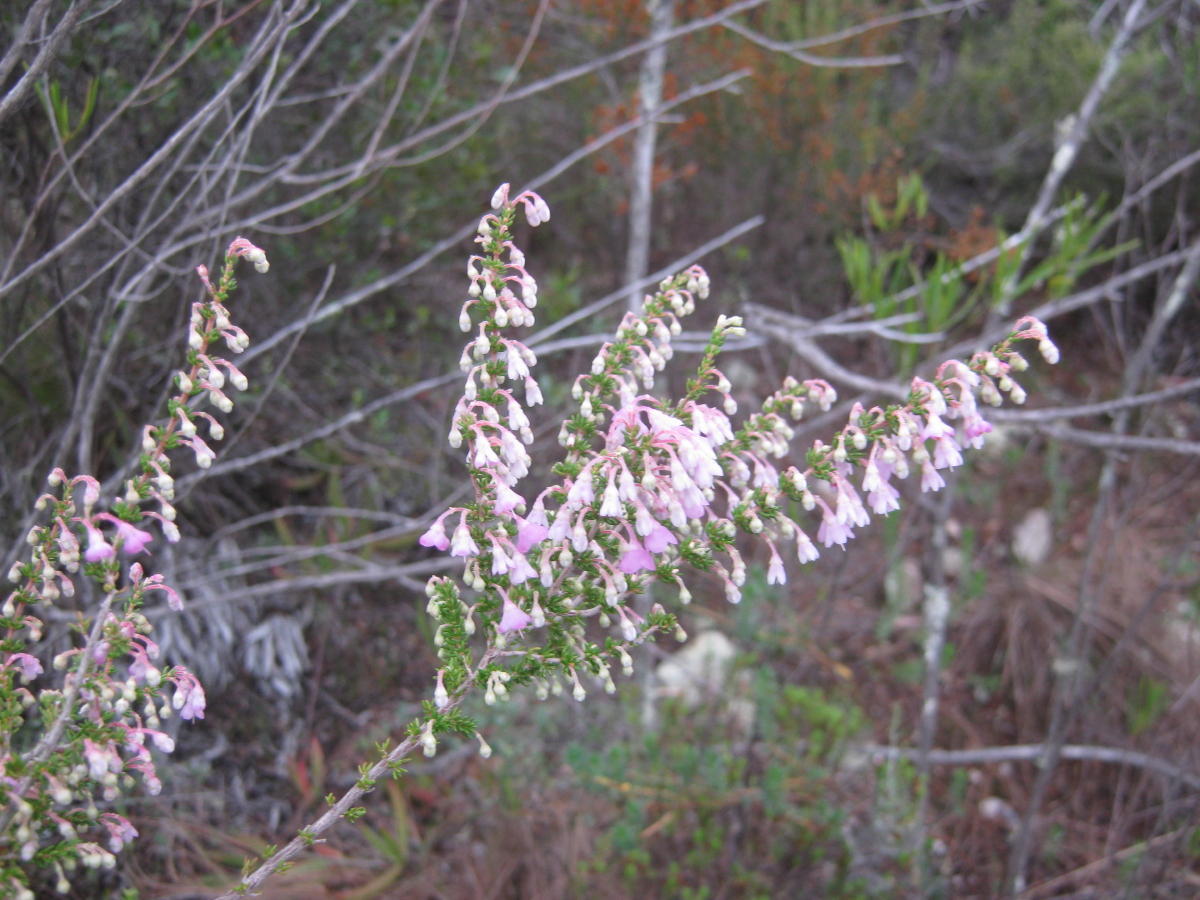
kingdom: Plantae
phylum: Tracheophyta
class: Magnoliopsida
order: Ericales
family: Ericaceae
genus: Erica
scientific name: Erica newdigatei
